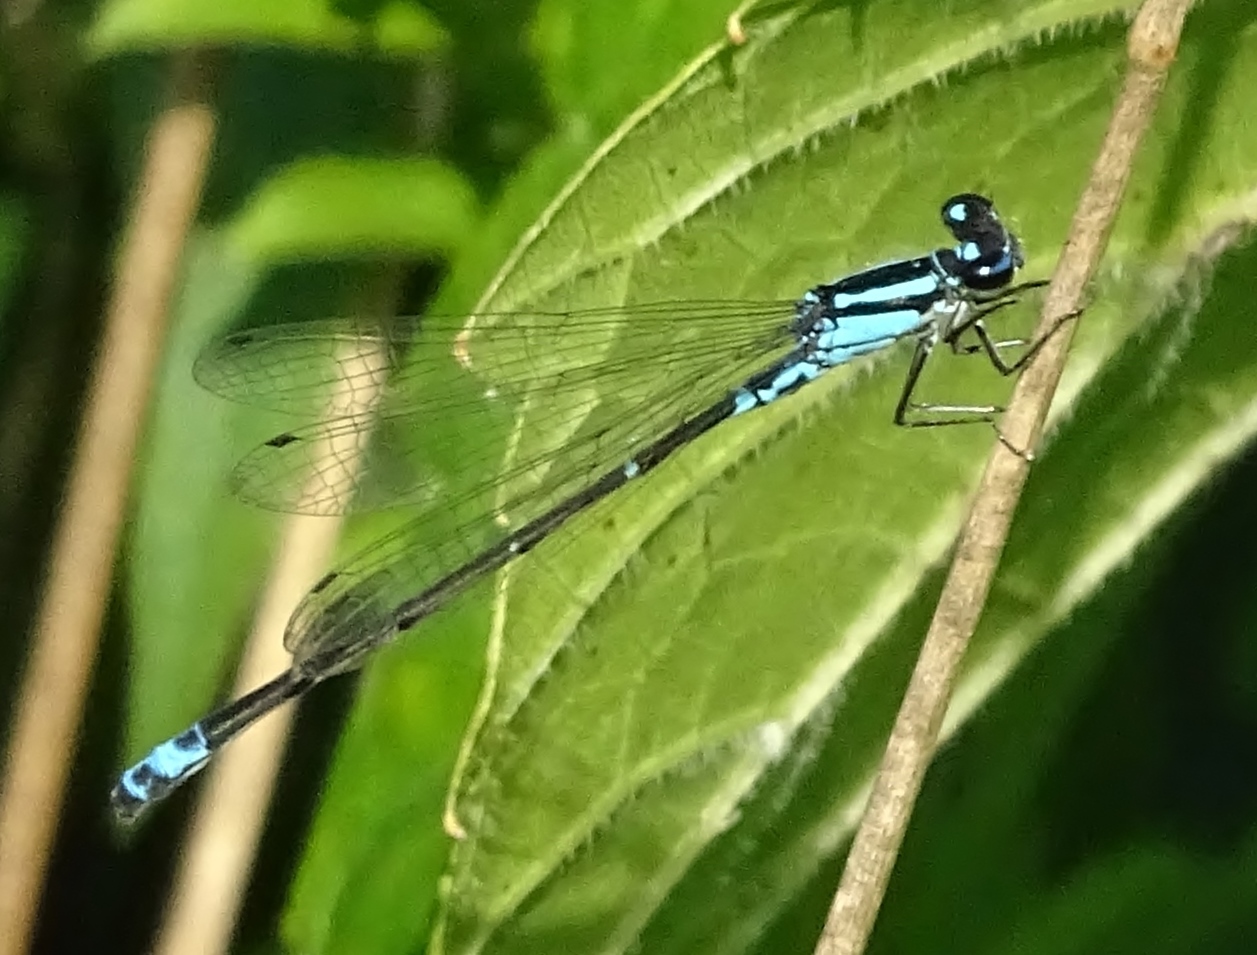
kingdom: Animalia
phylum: Arthropoda
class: Insecta
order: Odonata
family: Coenagrionidae
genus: Enallagma
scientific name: Enallagma geminatum
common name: Skimming bluet
